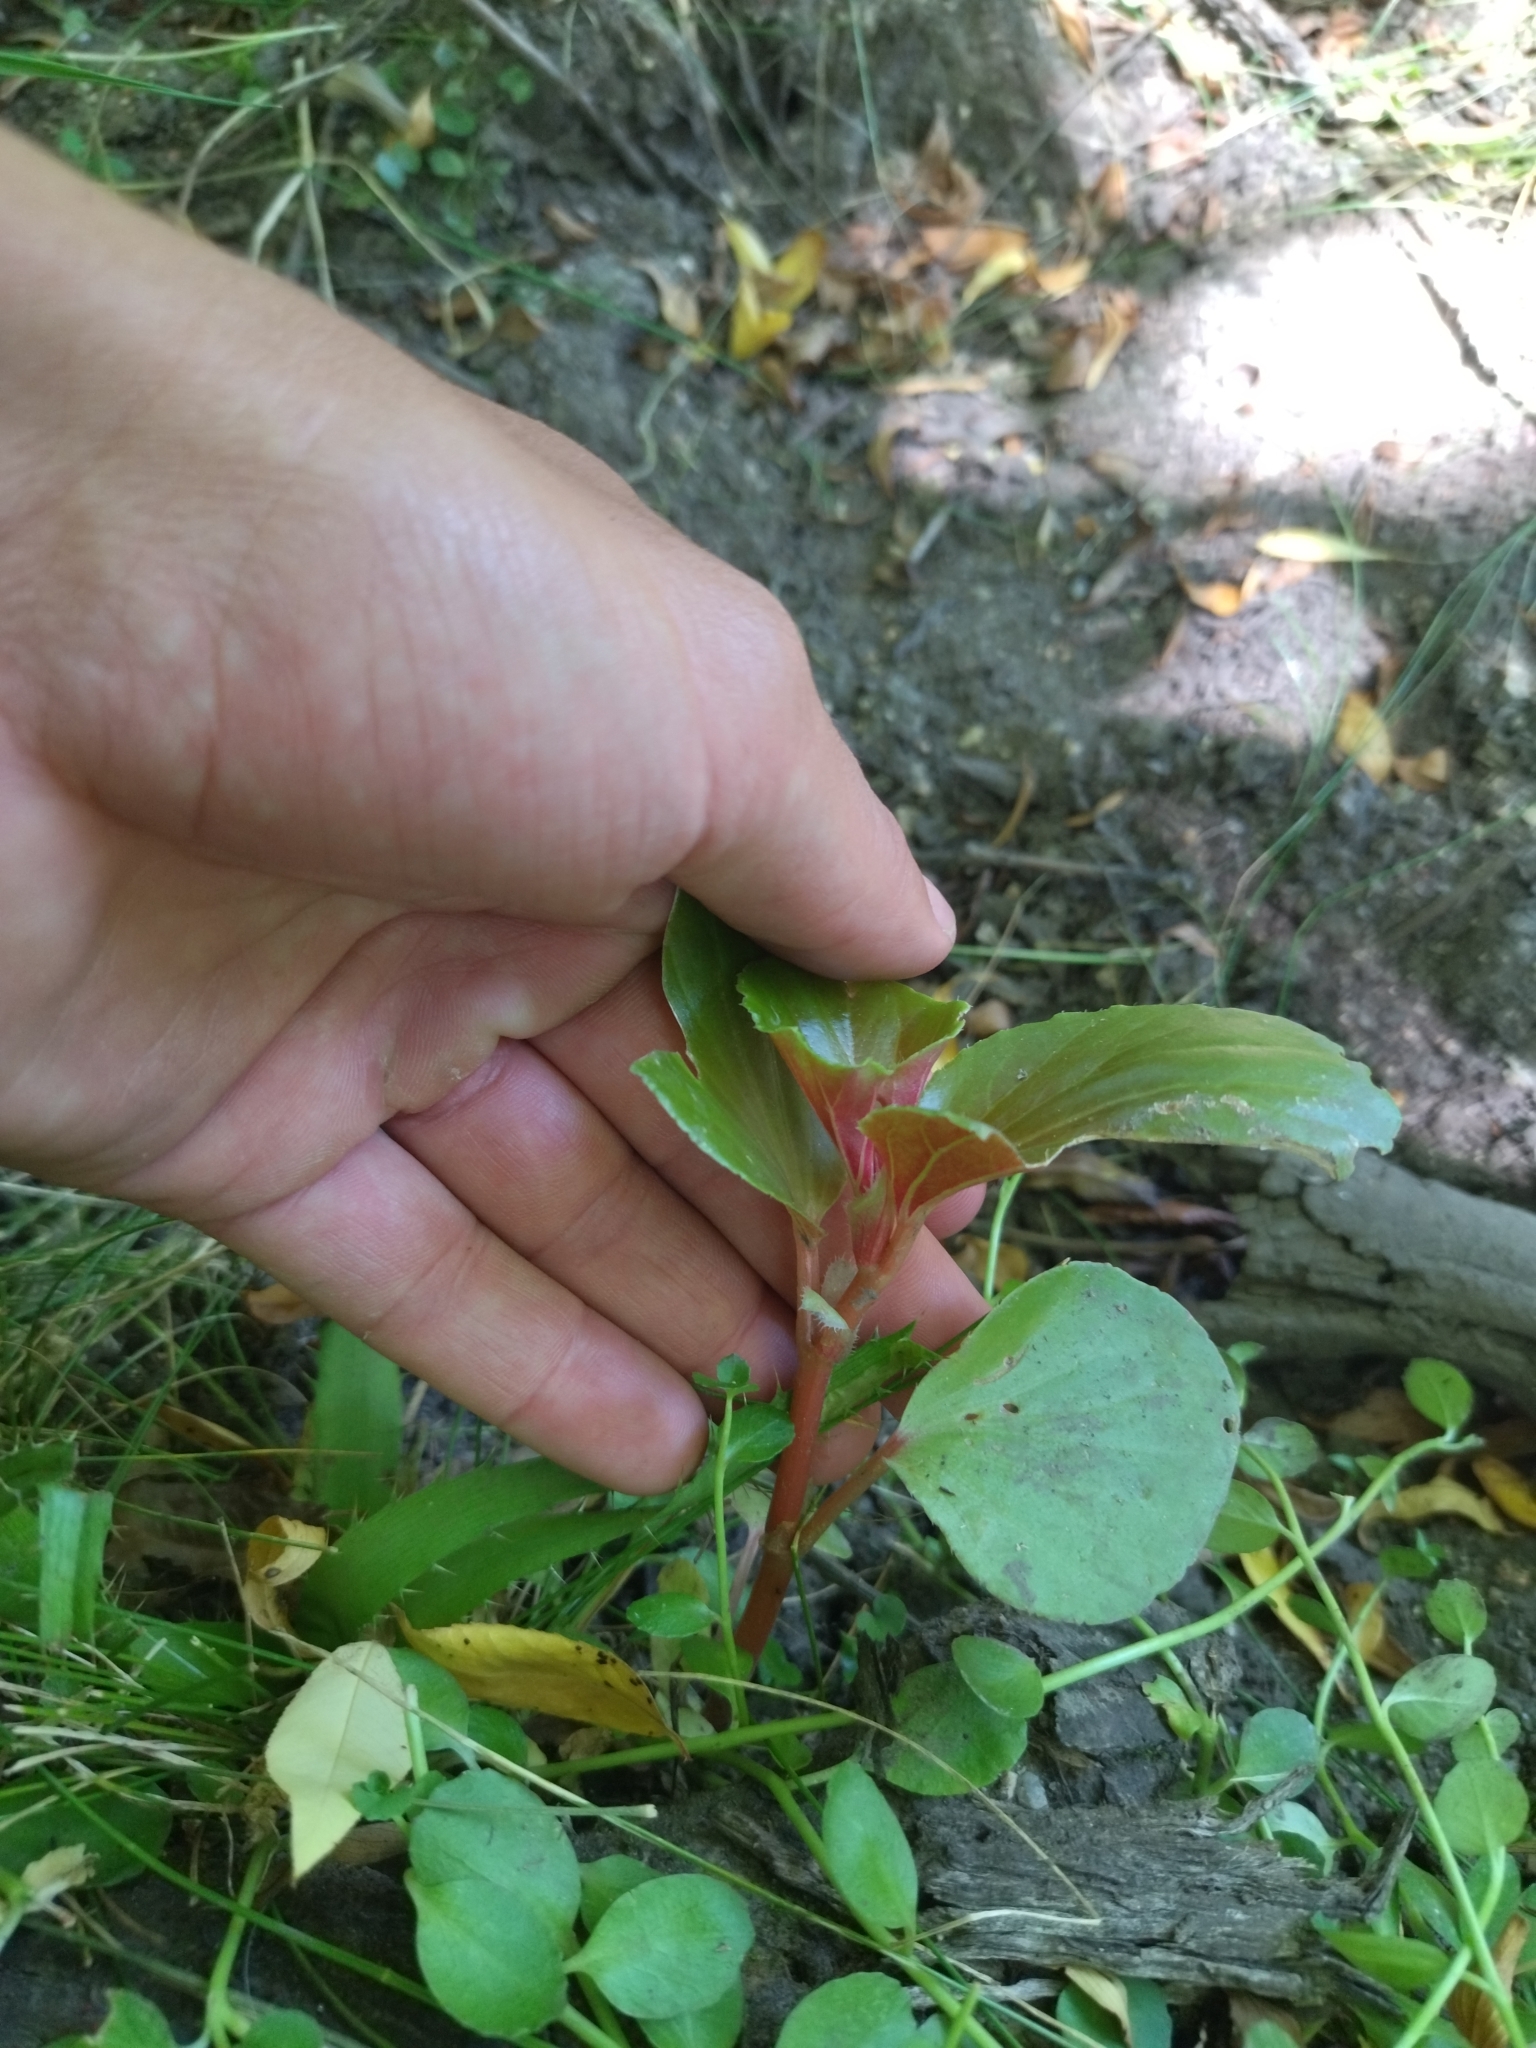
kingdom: Plantae
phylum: Tracheophyta
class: Magnoliopsida
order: Cucurbitales
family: Begoniaceae
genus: Begonia
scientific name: Begonia cucullata
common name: Clubbed begonia
